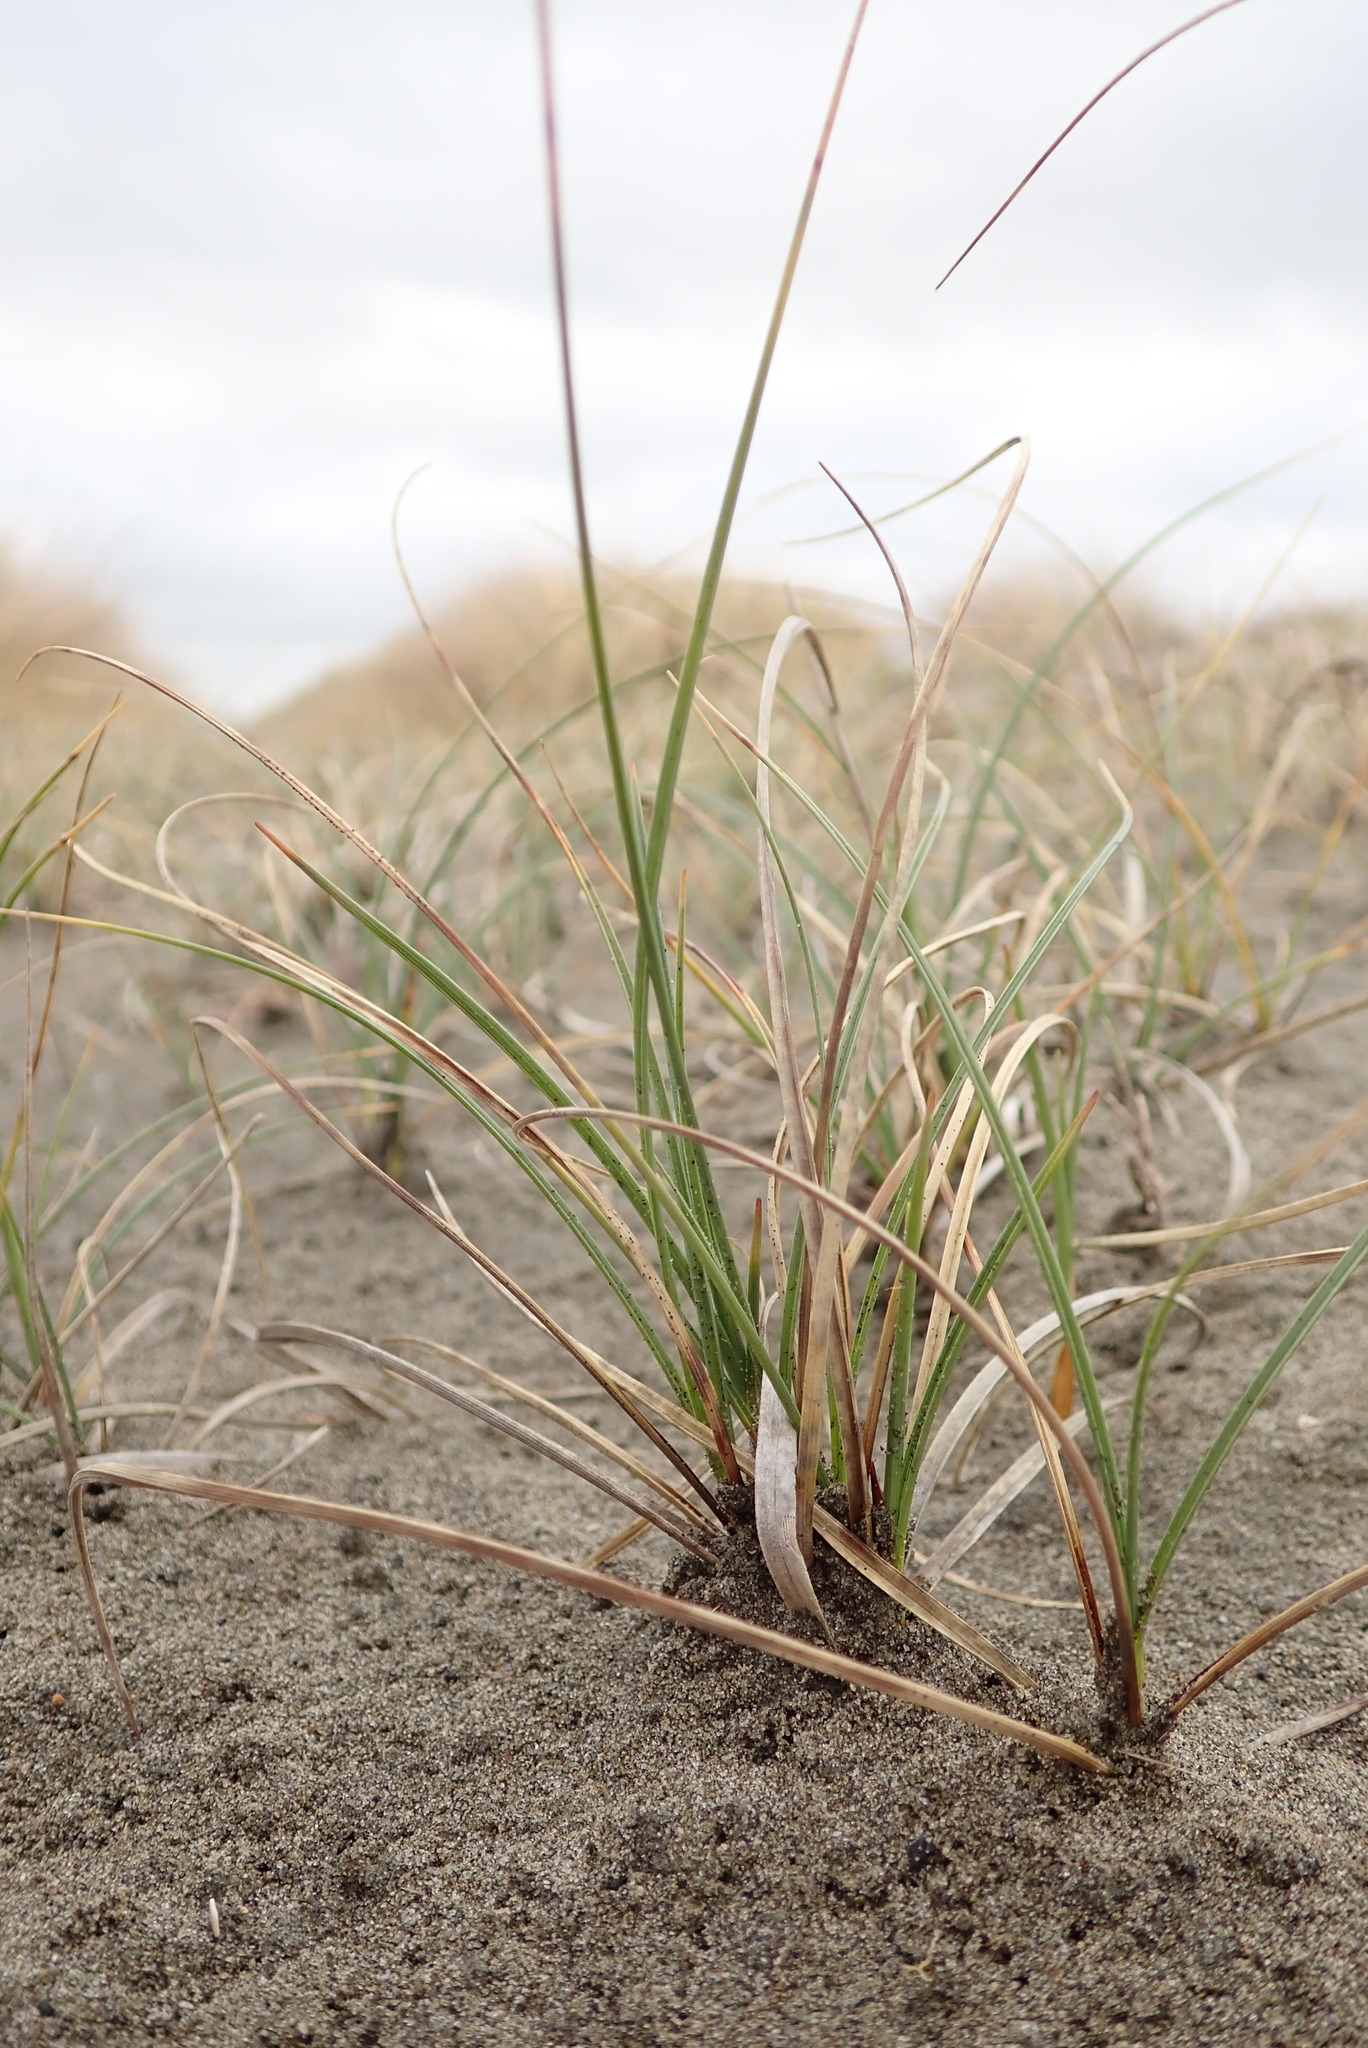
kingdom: Plantae
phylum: Tracheophyta
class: Liliopsida
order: Poales
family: Cyperaceae
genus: Carex
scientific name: Carex pumila
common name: Dwarf sedge
